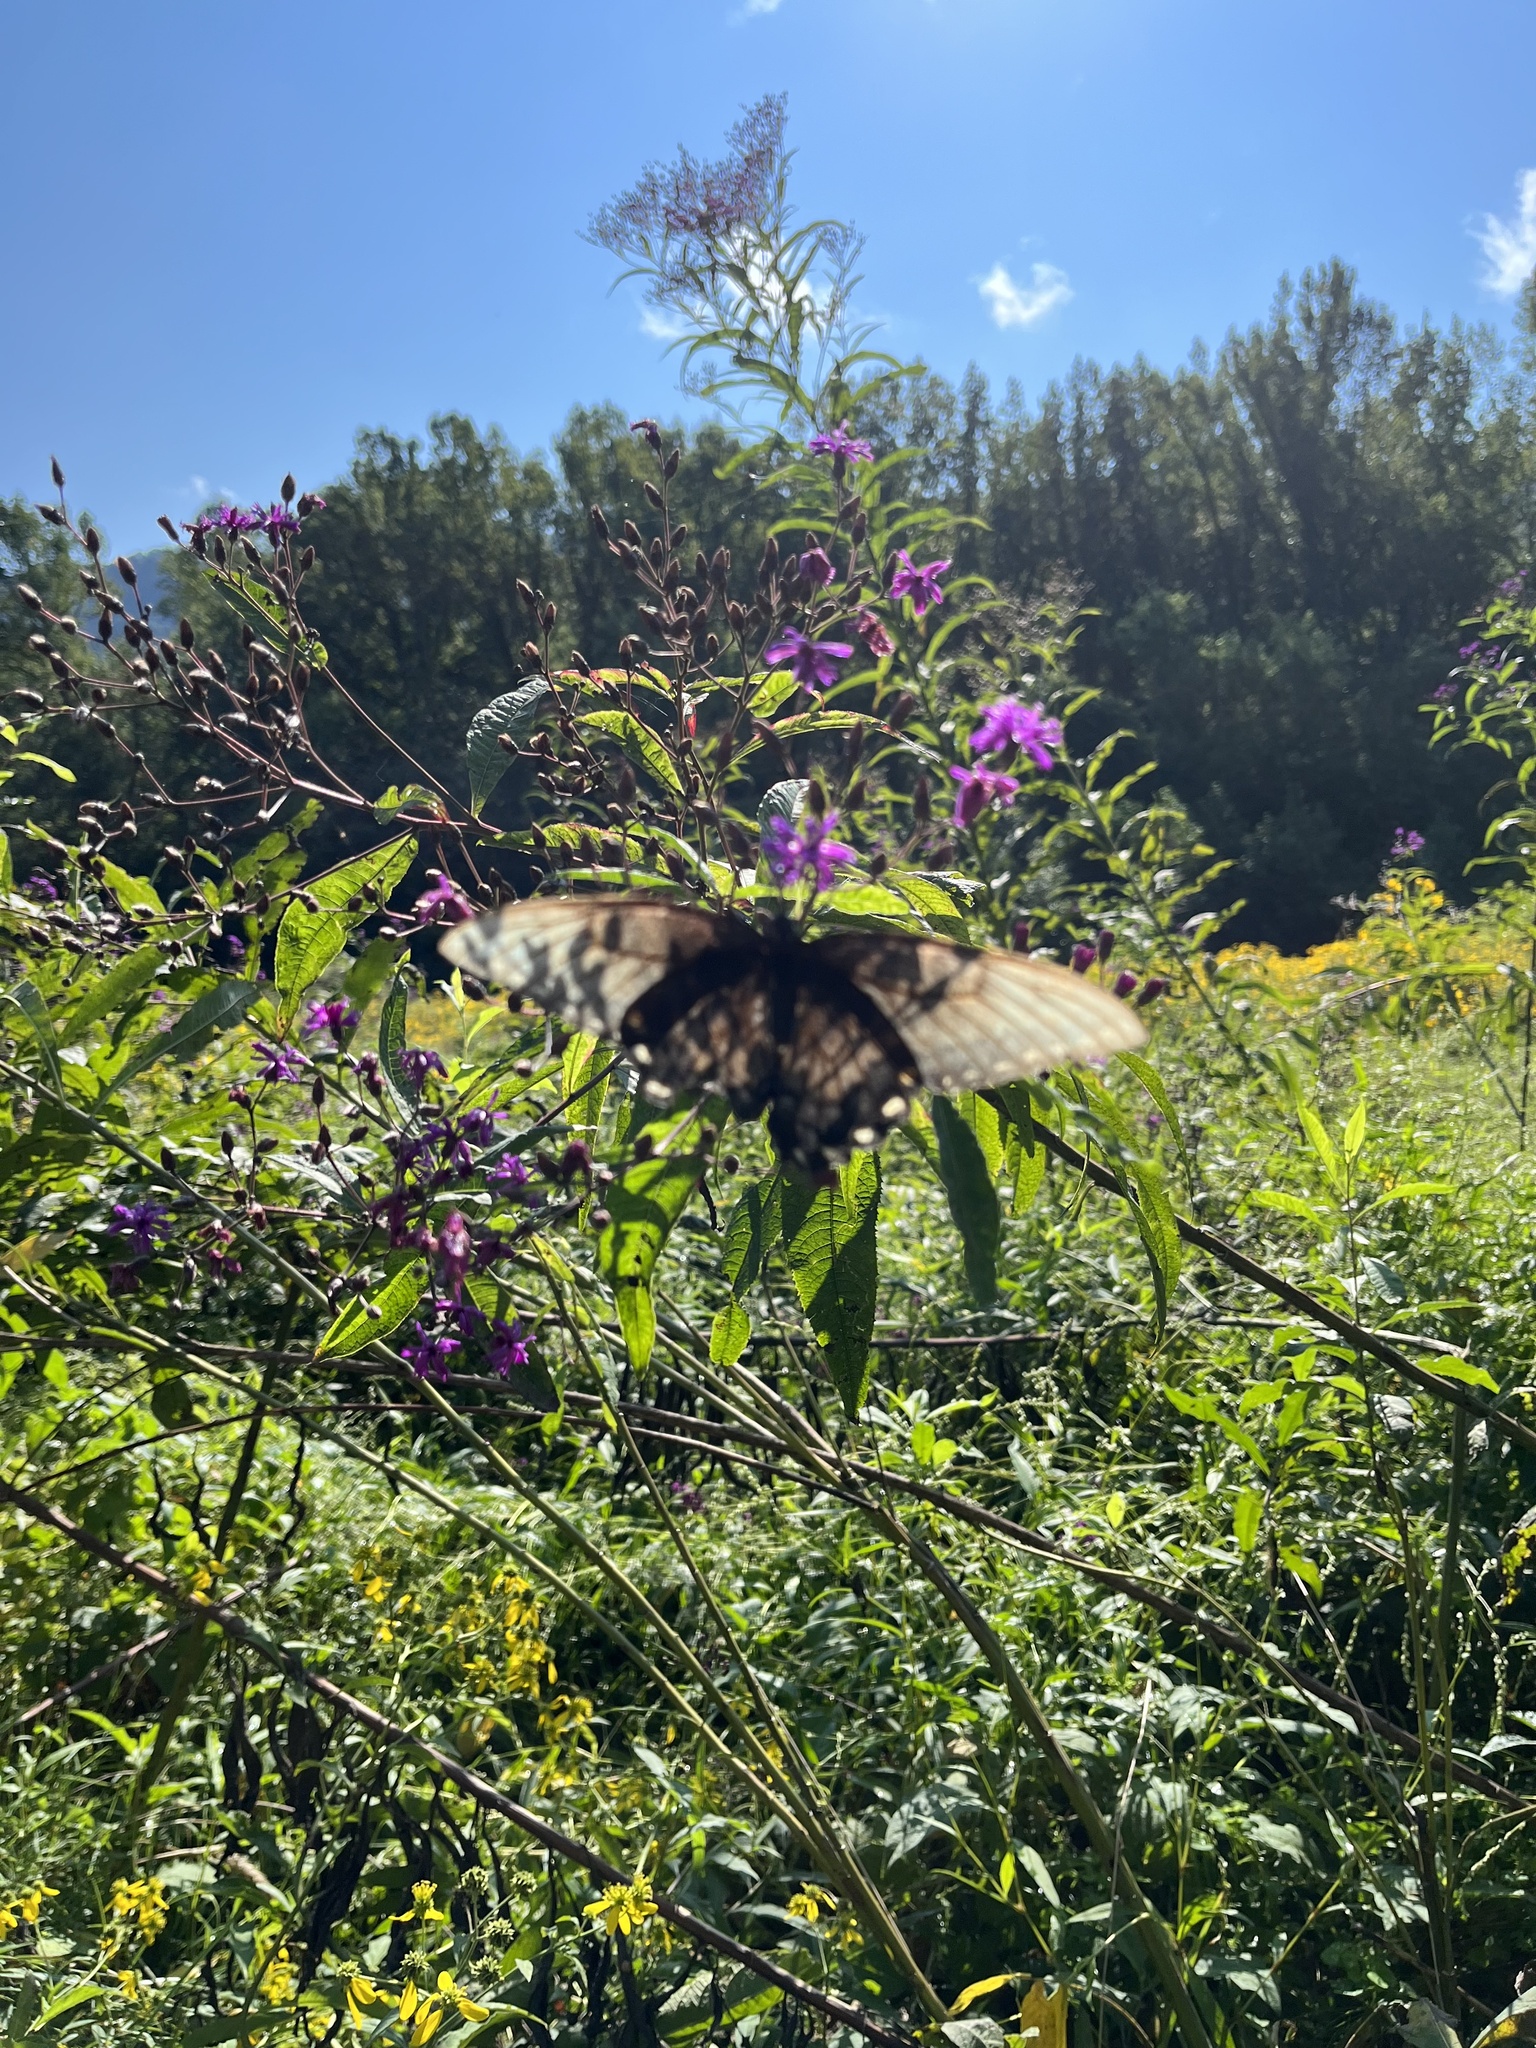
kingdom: Animalia
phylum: Arthropoda
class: Insecta
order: Lepidoptera
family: Papilionidae
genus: Papilio
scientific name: Papilio glaucus
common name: Tiger swallowtail
